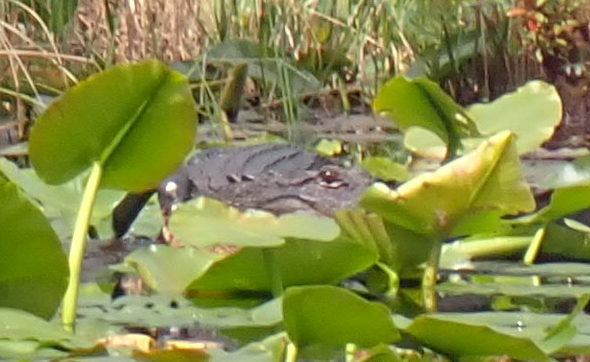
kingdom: Animalia
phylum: Chordata
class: Crocodylia
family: Alligatoridae
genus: Alligator
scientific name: Alligator mississippiensis
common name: American alligator
